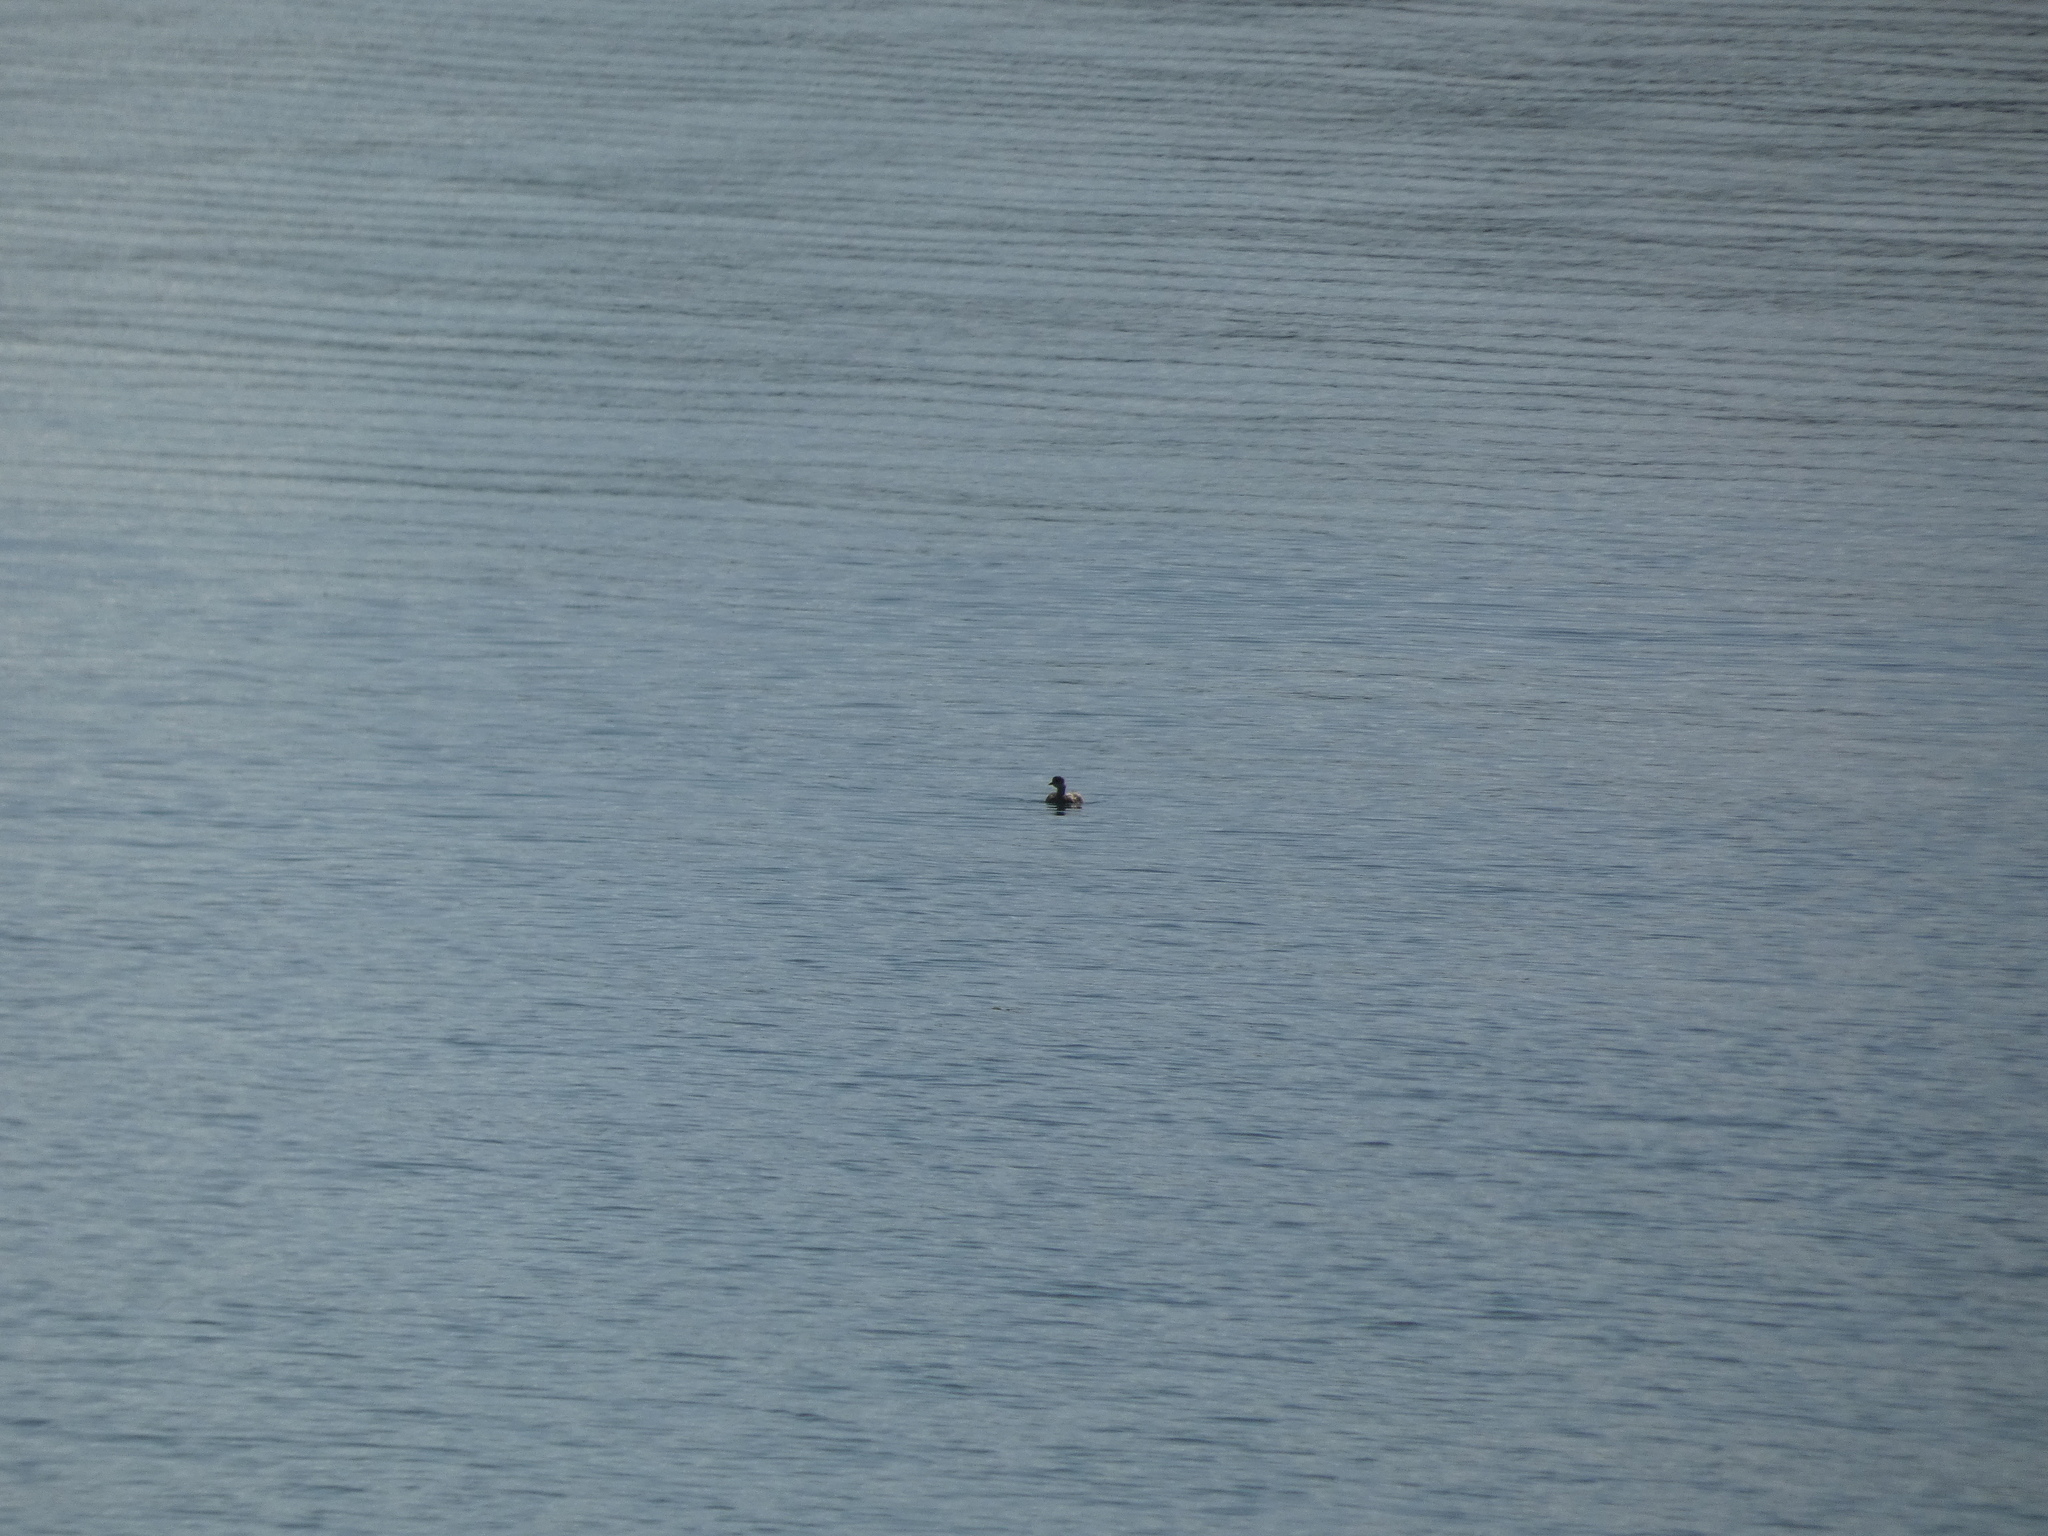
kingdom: Animalia
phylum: Chordata
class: Aves
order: Podicipediformes
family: Podicipedidae
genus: Tachybaptus
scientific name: Tachybaptus ruficollis
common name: Little grebe
